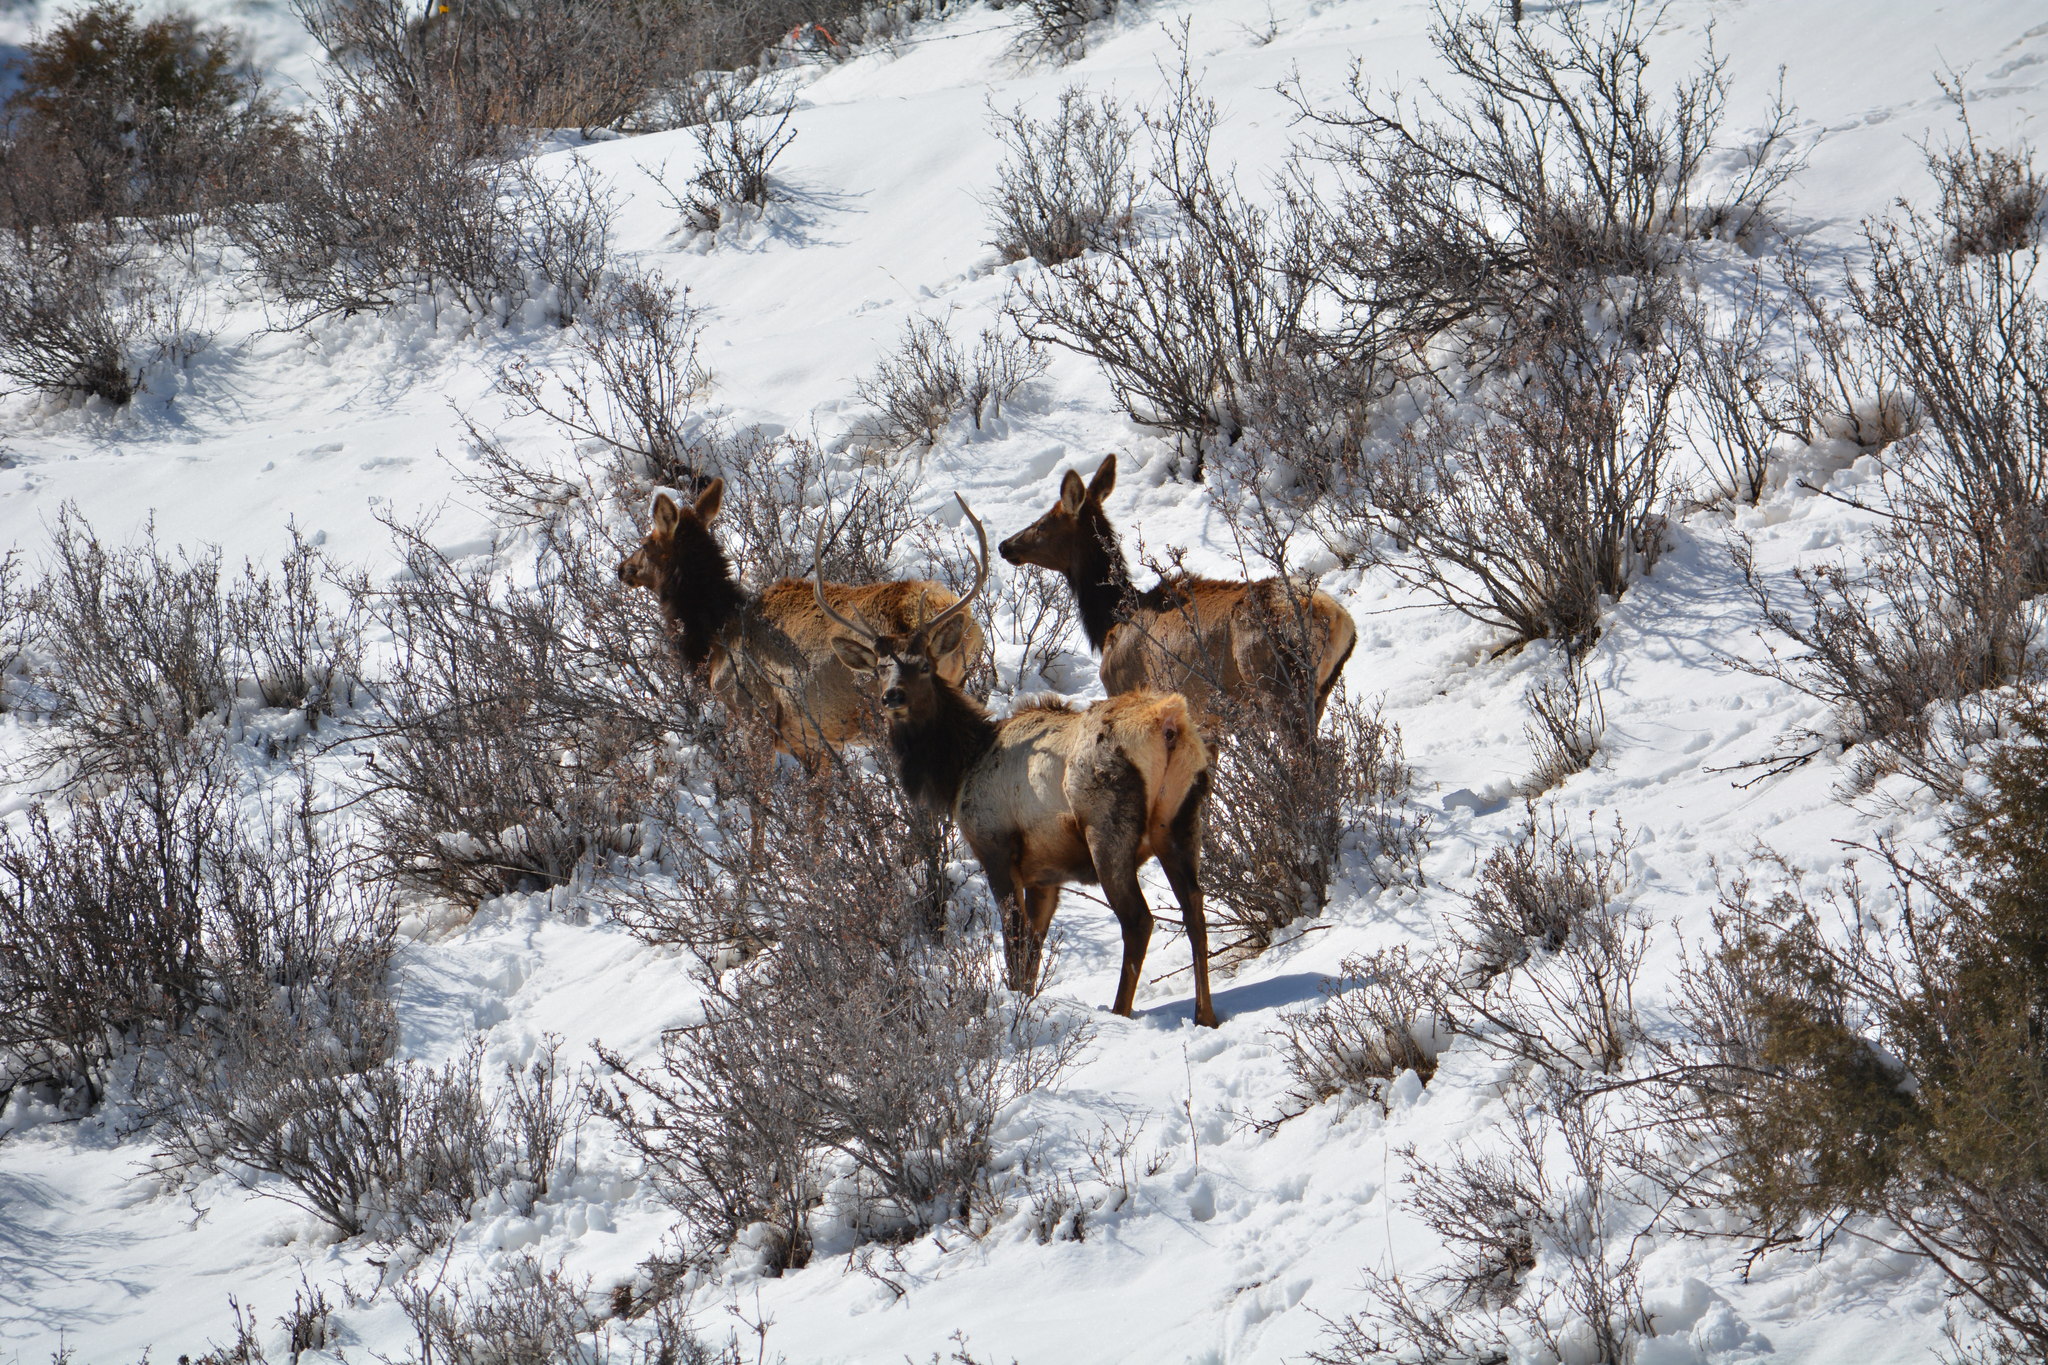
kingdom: Animalia
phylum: Chordata
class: Mammalia
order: Artiodactyla
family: Cervidae
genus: Cervus
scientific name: Cervus elaphus
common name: Red deer
